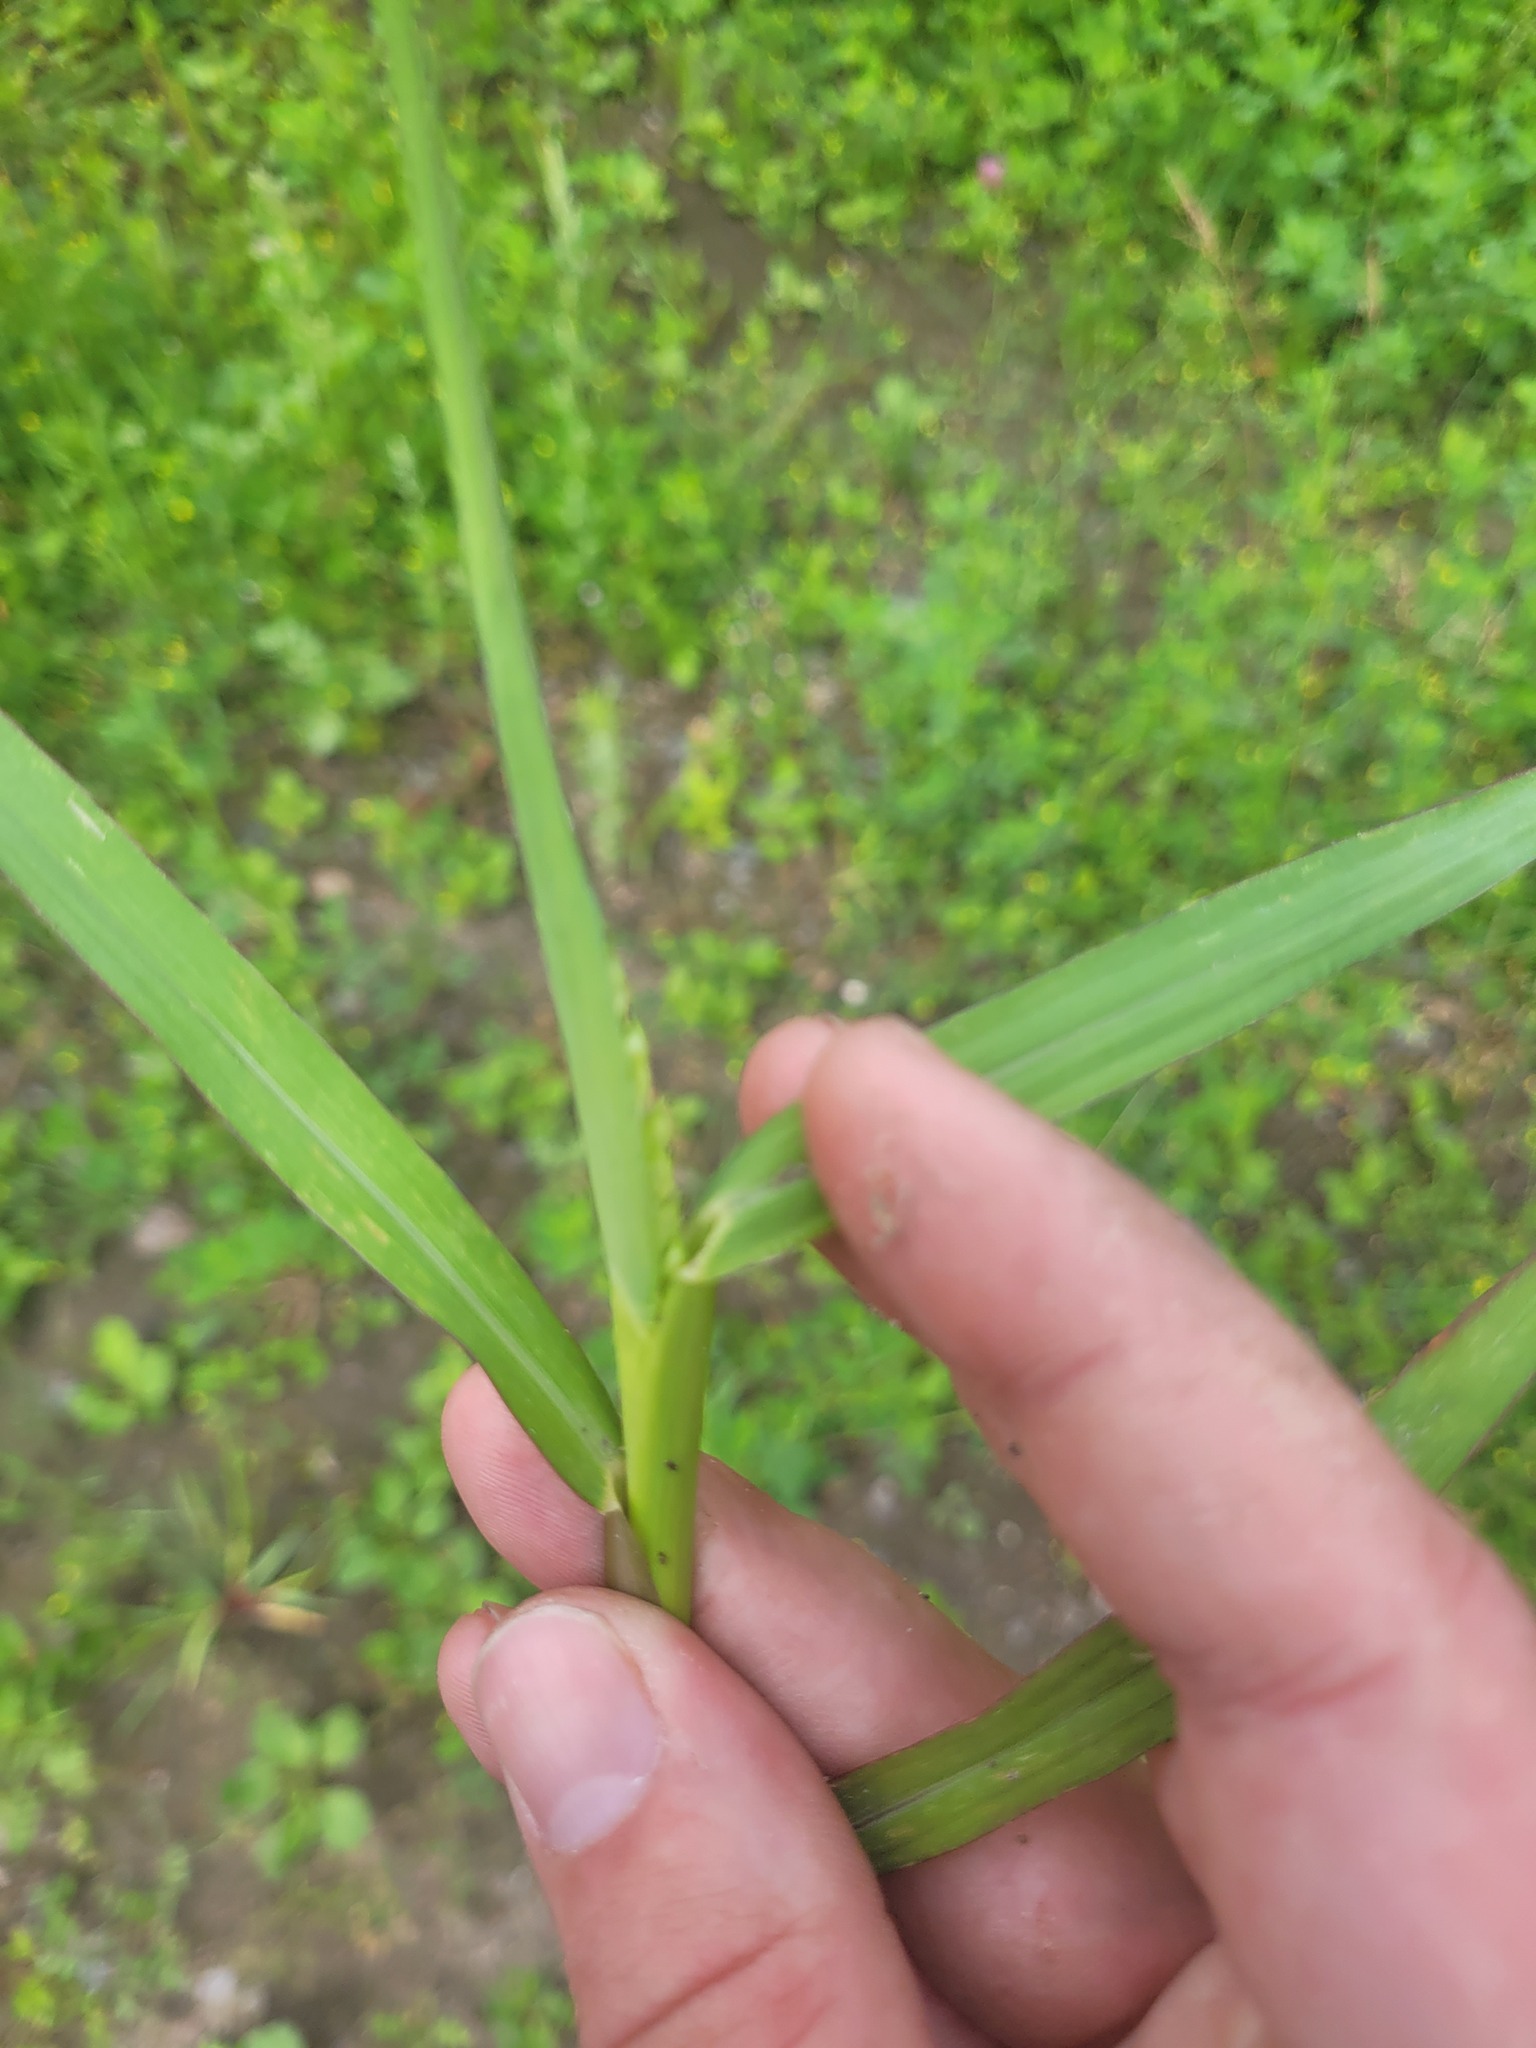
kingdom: Plantae
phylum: Tracheophyta
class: Liliopsida
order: Poales
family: Poaceae
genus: Echinochloa
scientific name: Echinochloa crus-galli
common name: Cockspur
